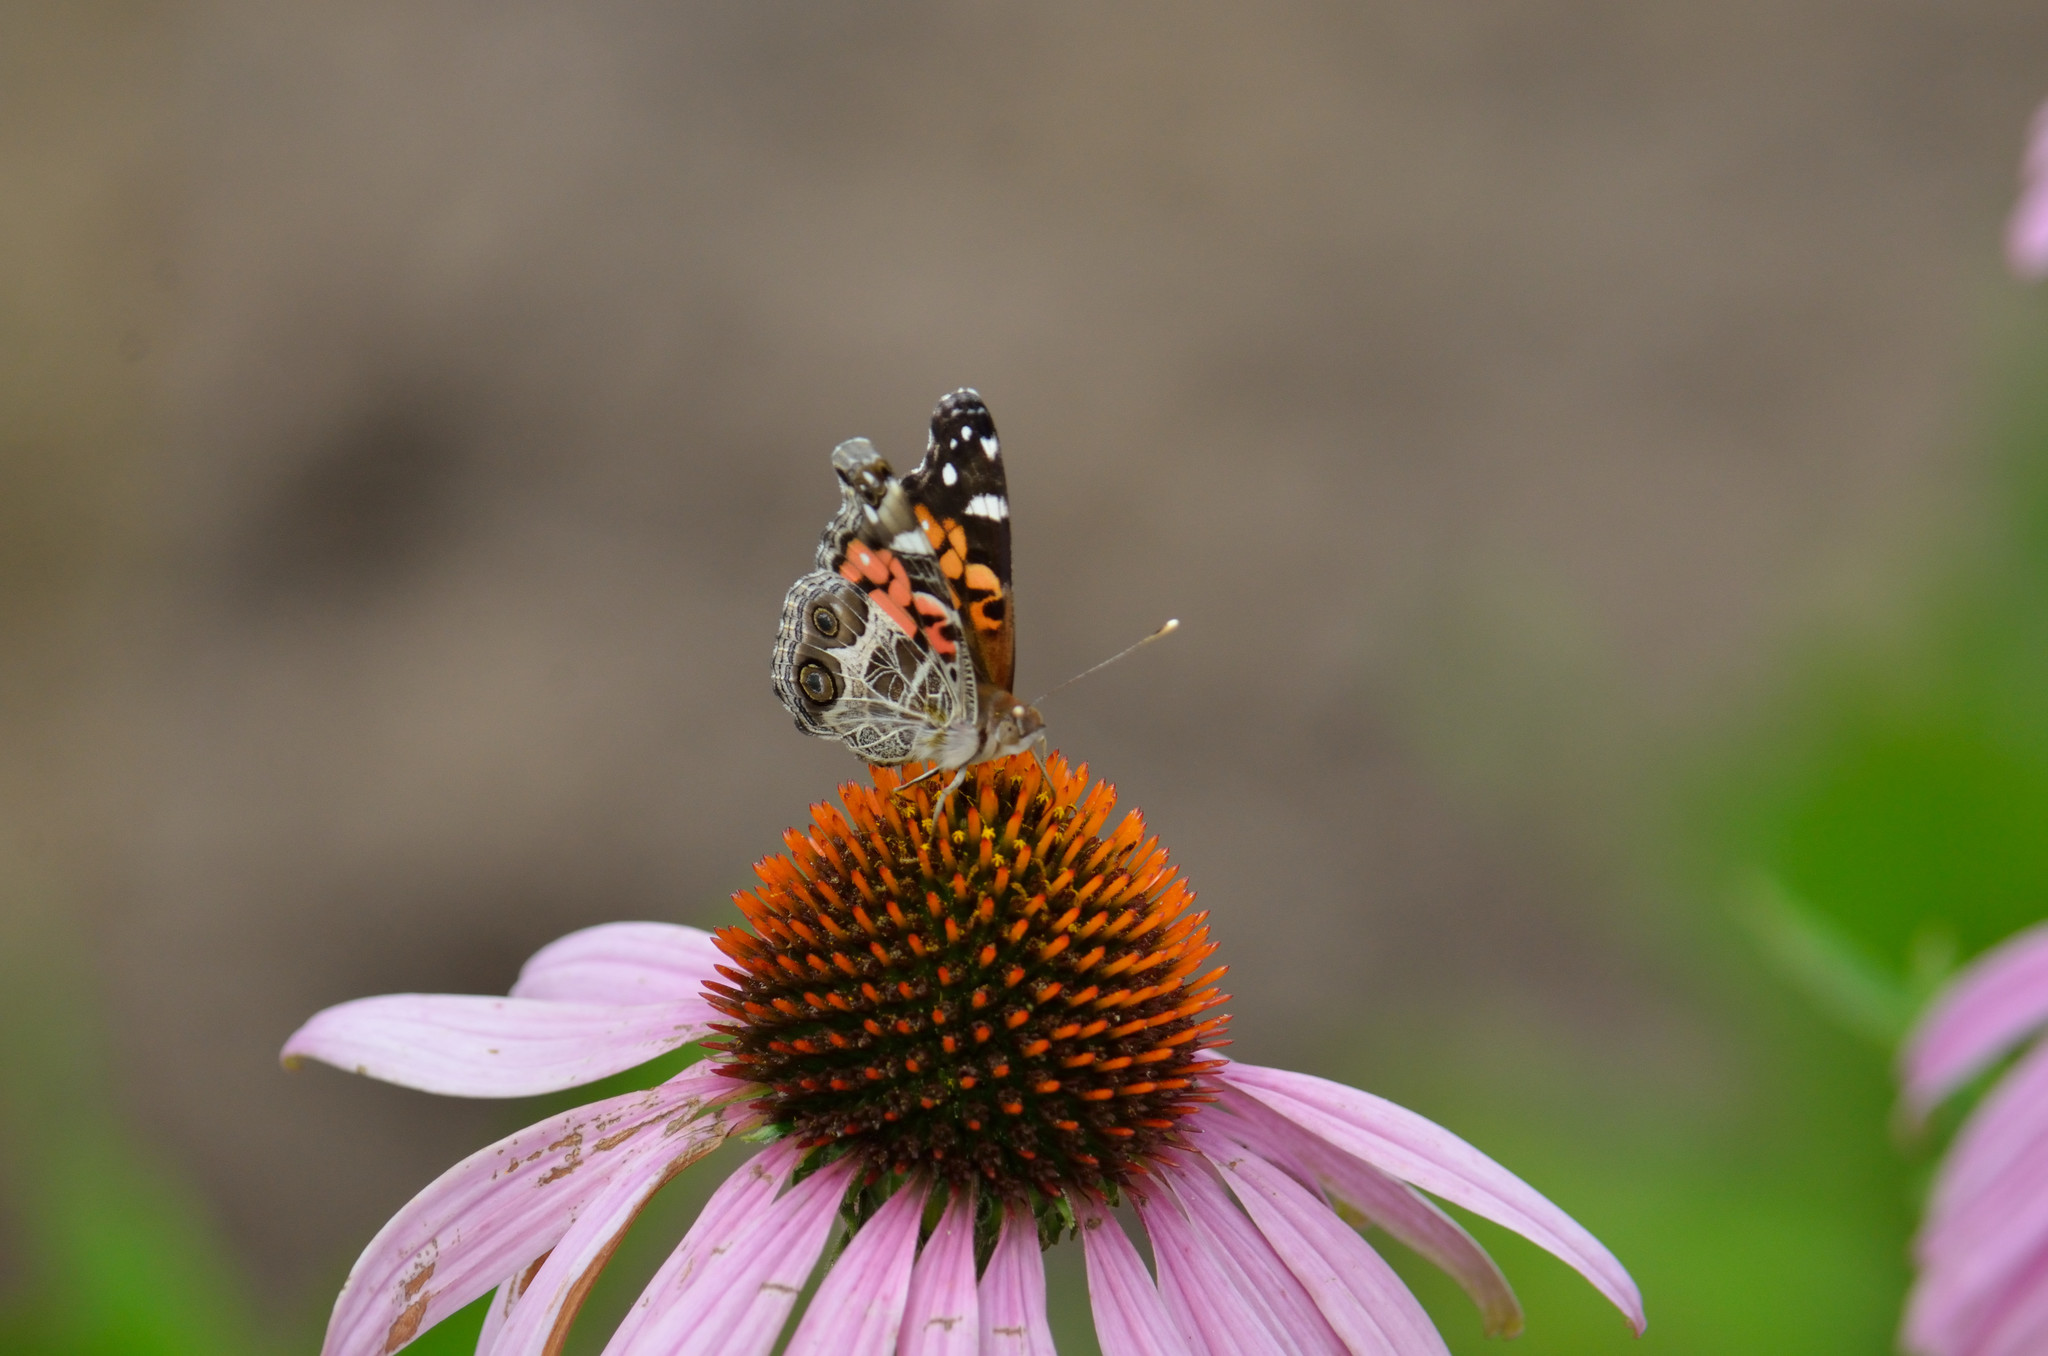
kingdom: Animalia
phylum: Arthropoda
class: Insecta
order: Lepidoptera
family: Nymphalidae
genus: Vanessa
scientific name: Vanessa virginiensis
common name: American lady
